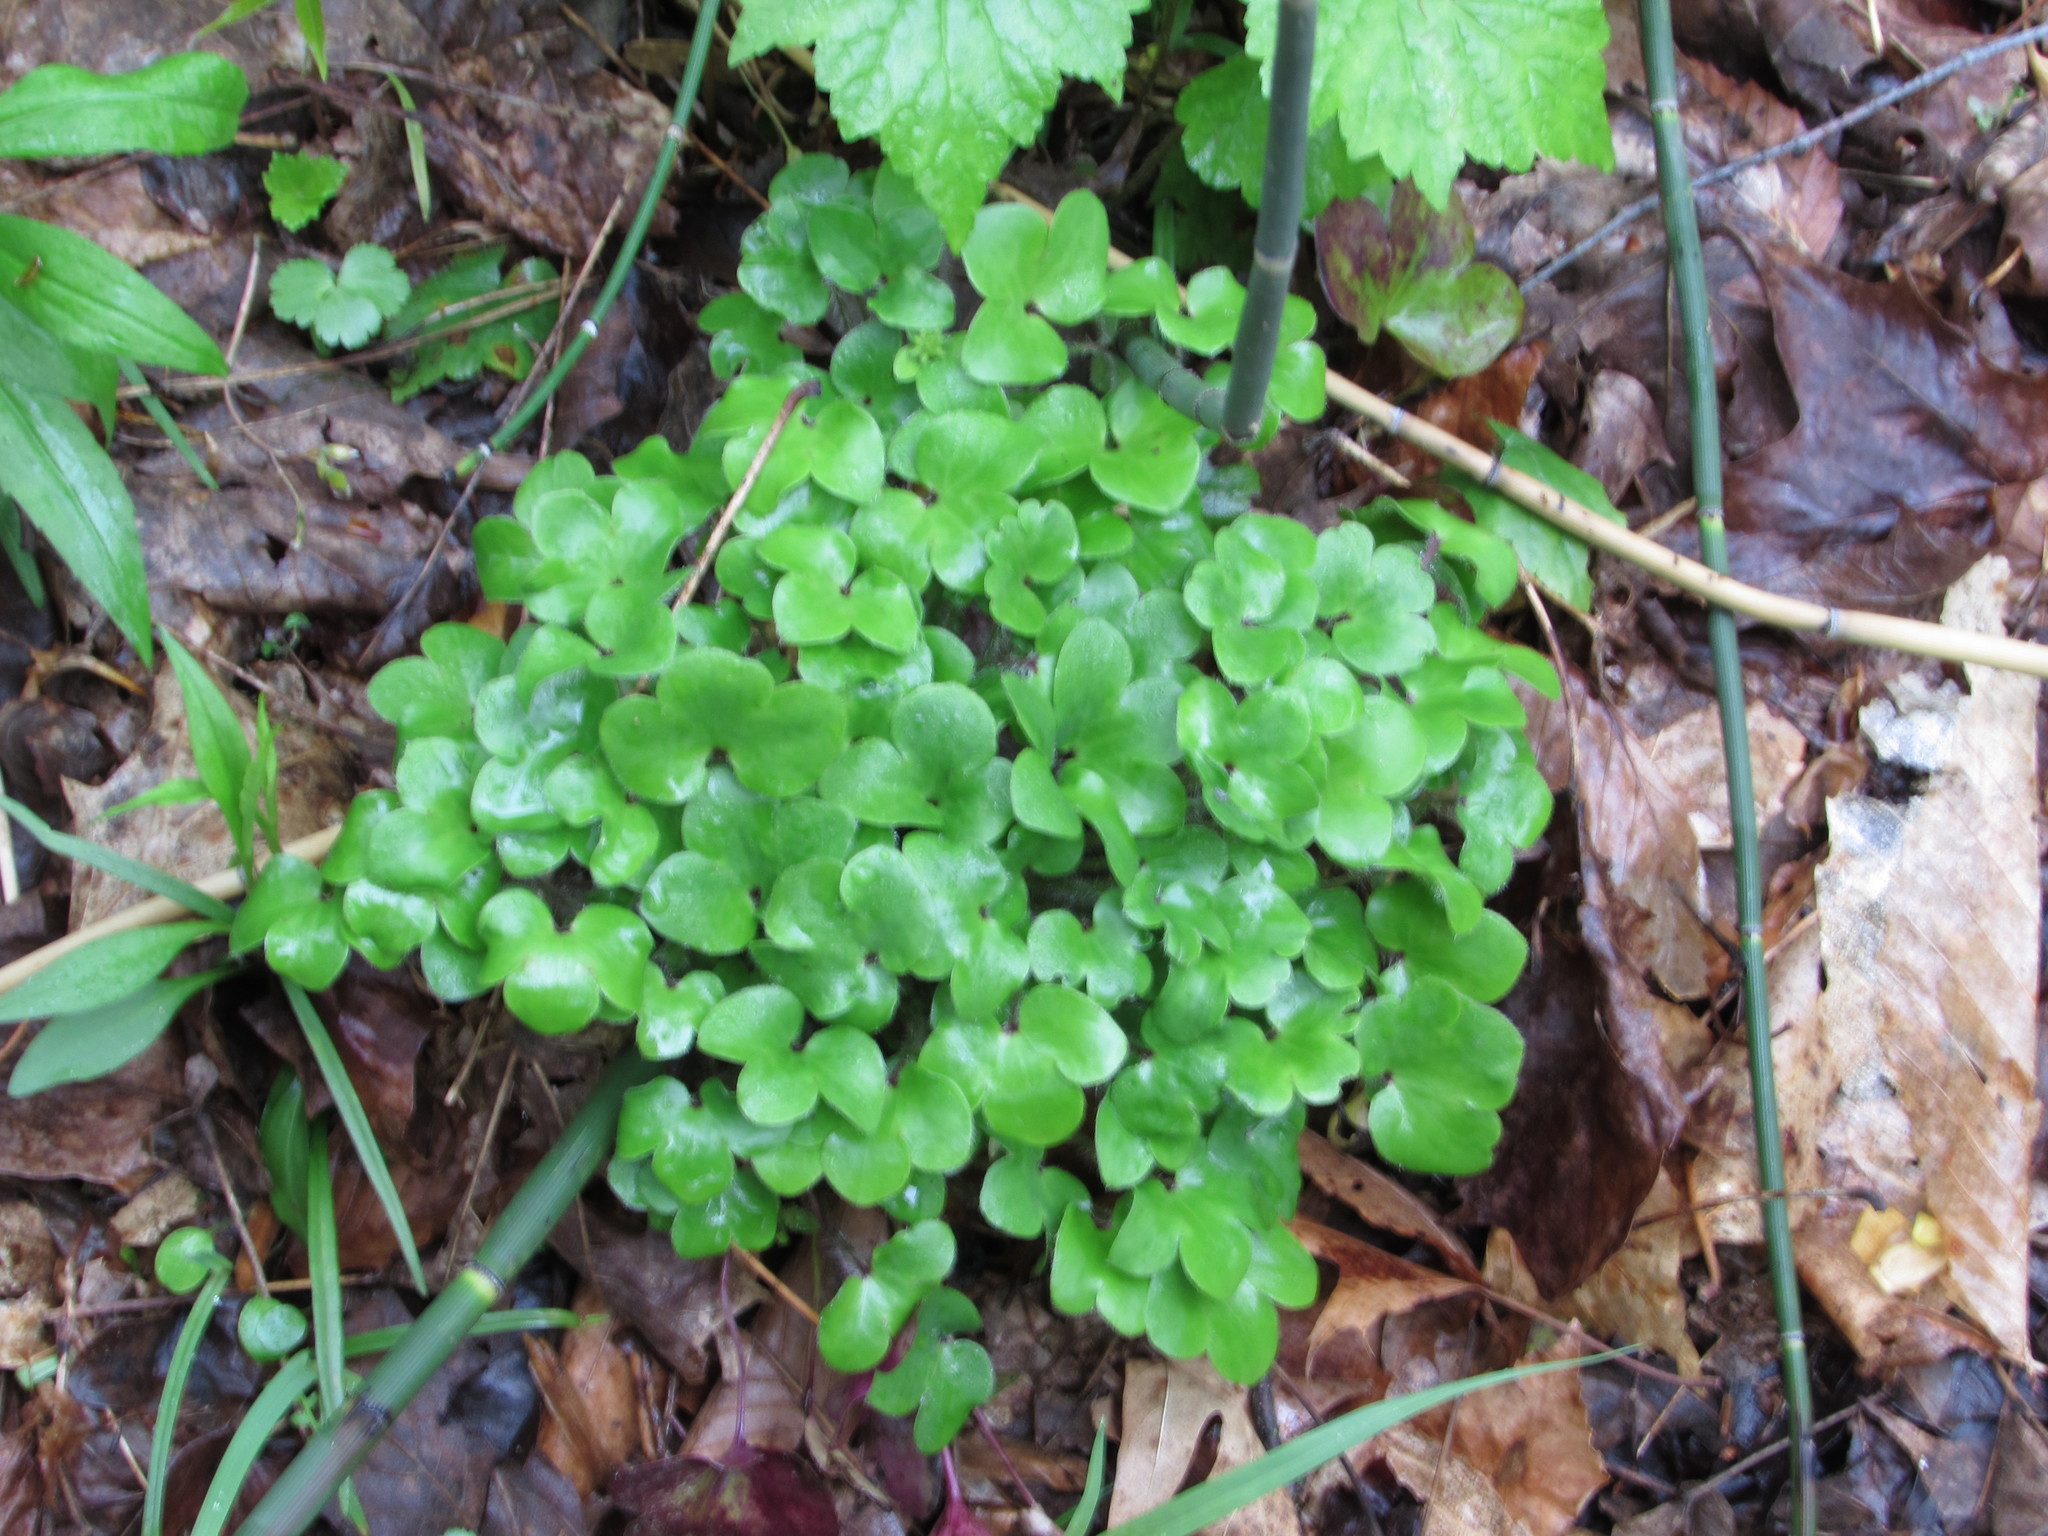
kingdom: Plantae
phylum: Tracheophyta
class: Magnoliopsida
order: Ranunculales
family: Ranunculaceae
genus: Hepatica
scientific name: Hepatica americana
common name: American hepatica
